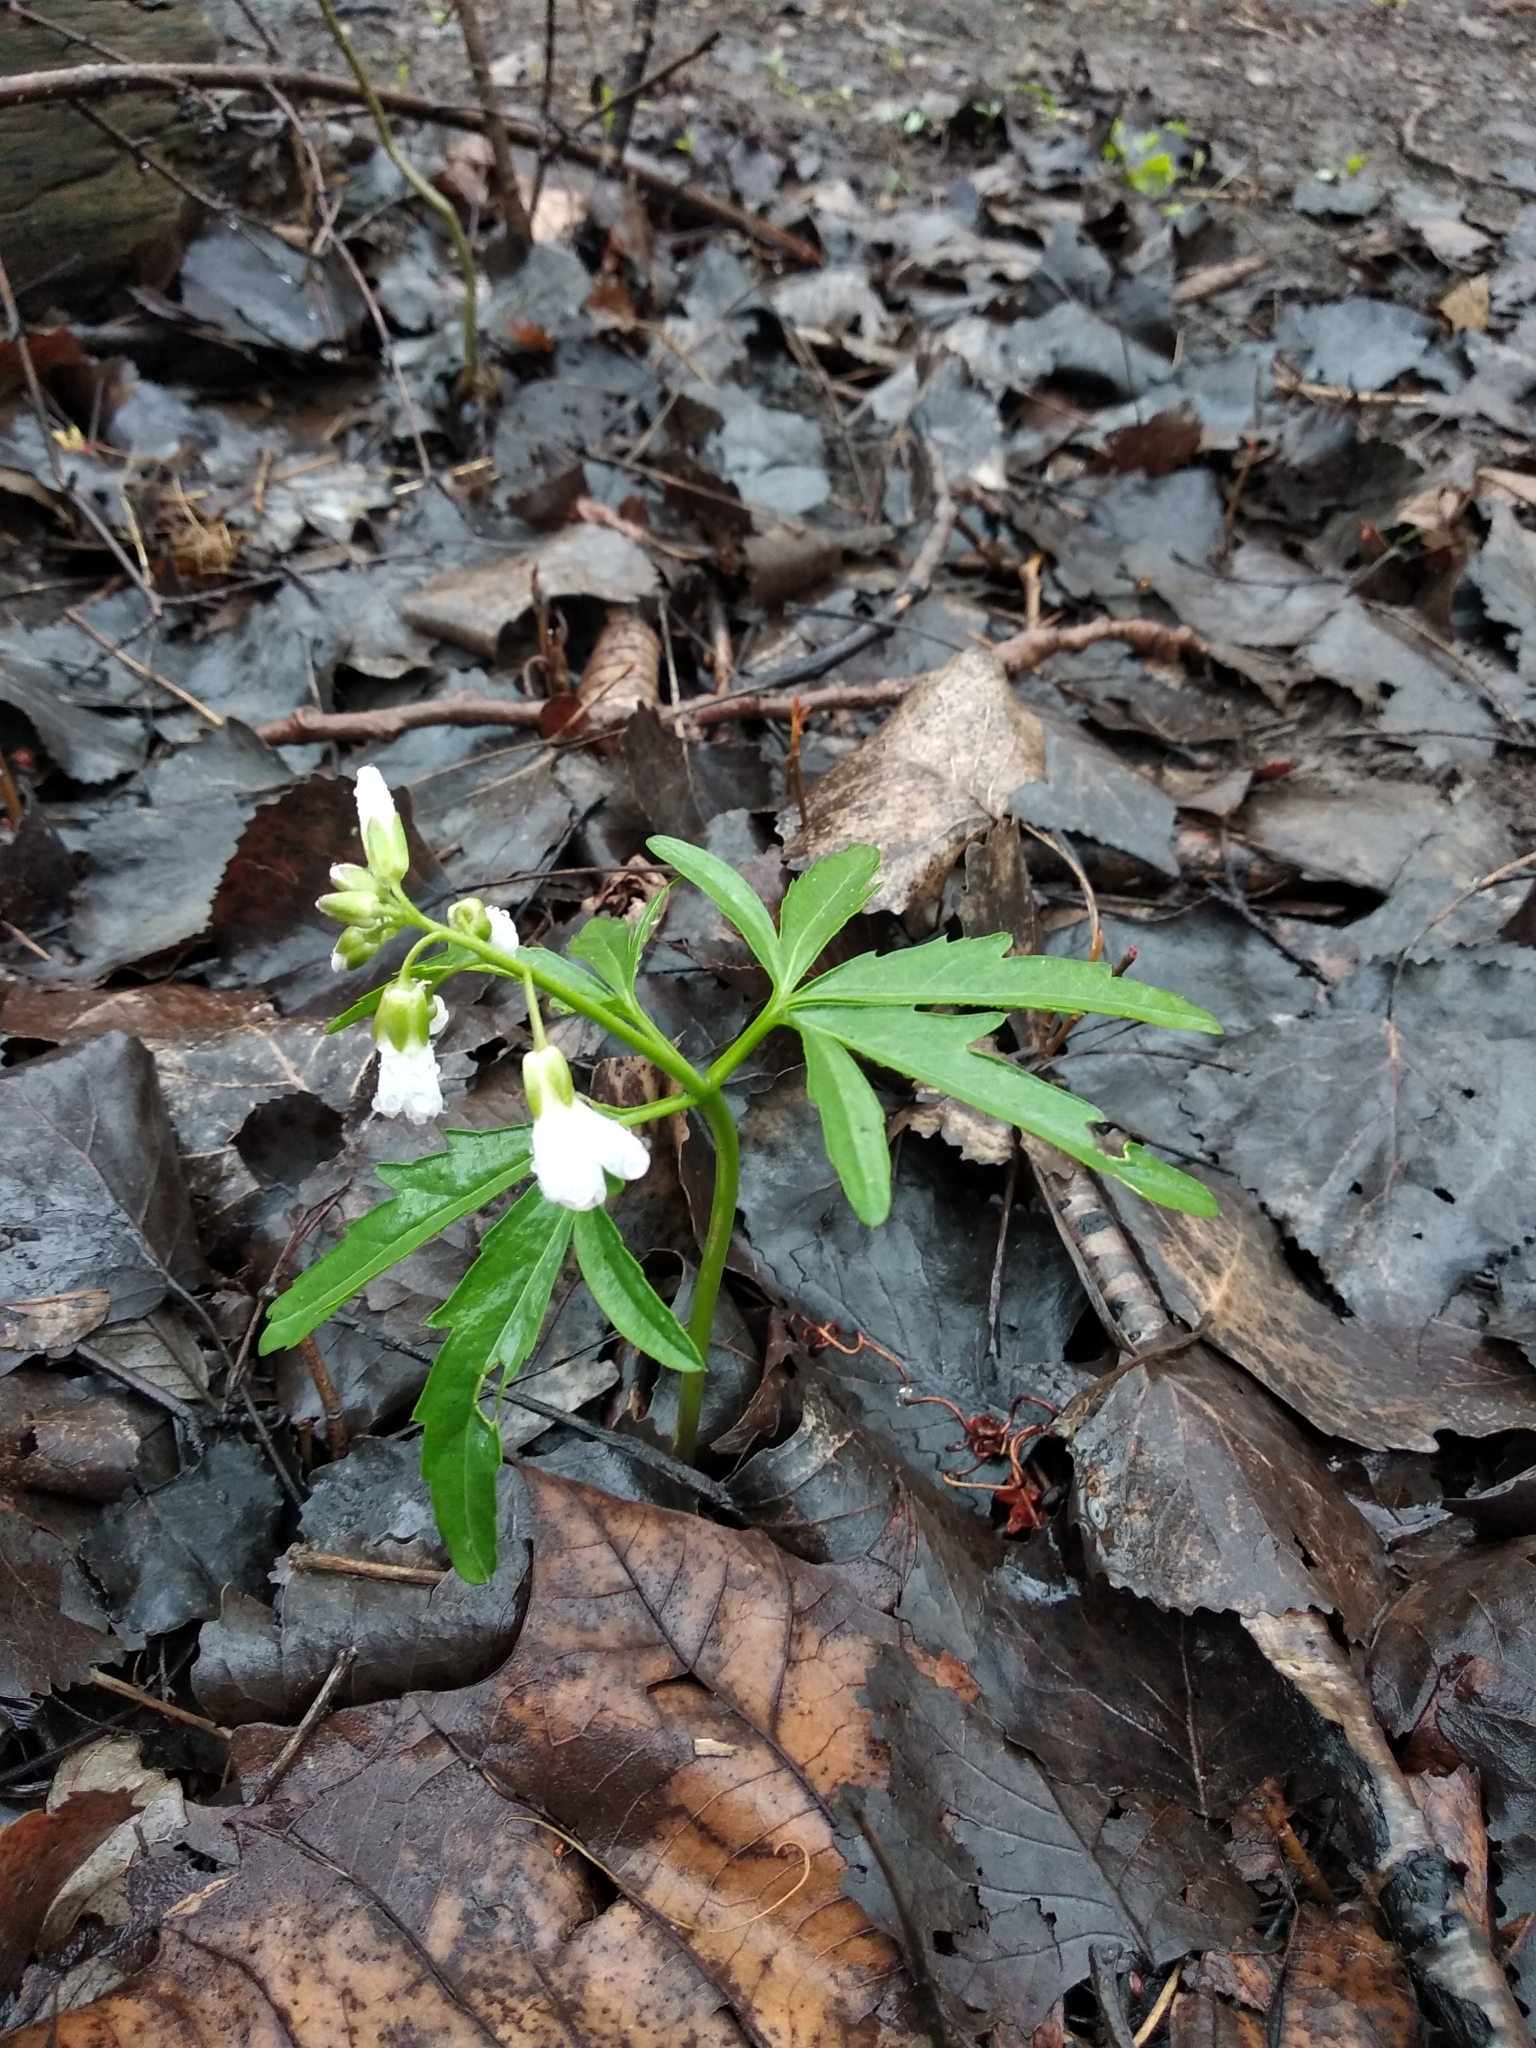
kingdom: Plantae
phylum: Tracheophyta
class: Magnoliopsida
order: Brassicales
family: Brassicaceae
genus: Cardamine
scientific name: Cardamine concatenata
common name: Cut-leaf toothcup
